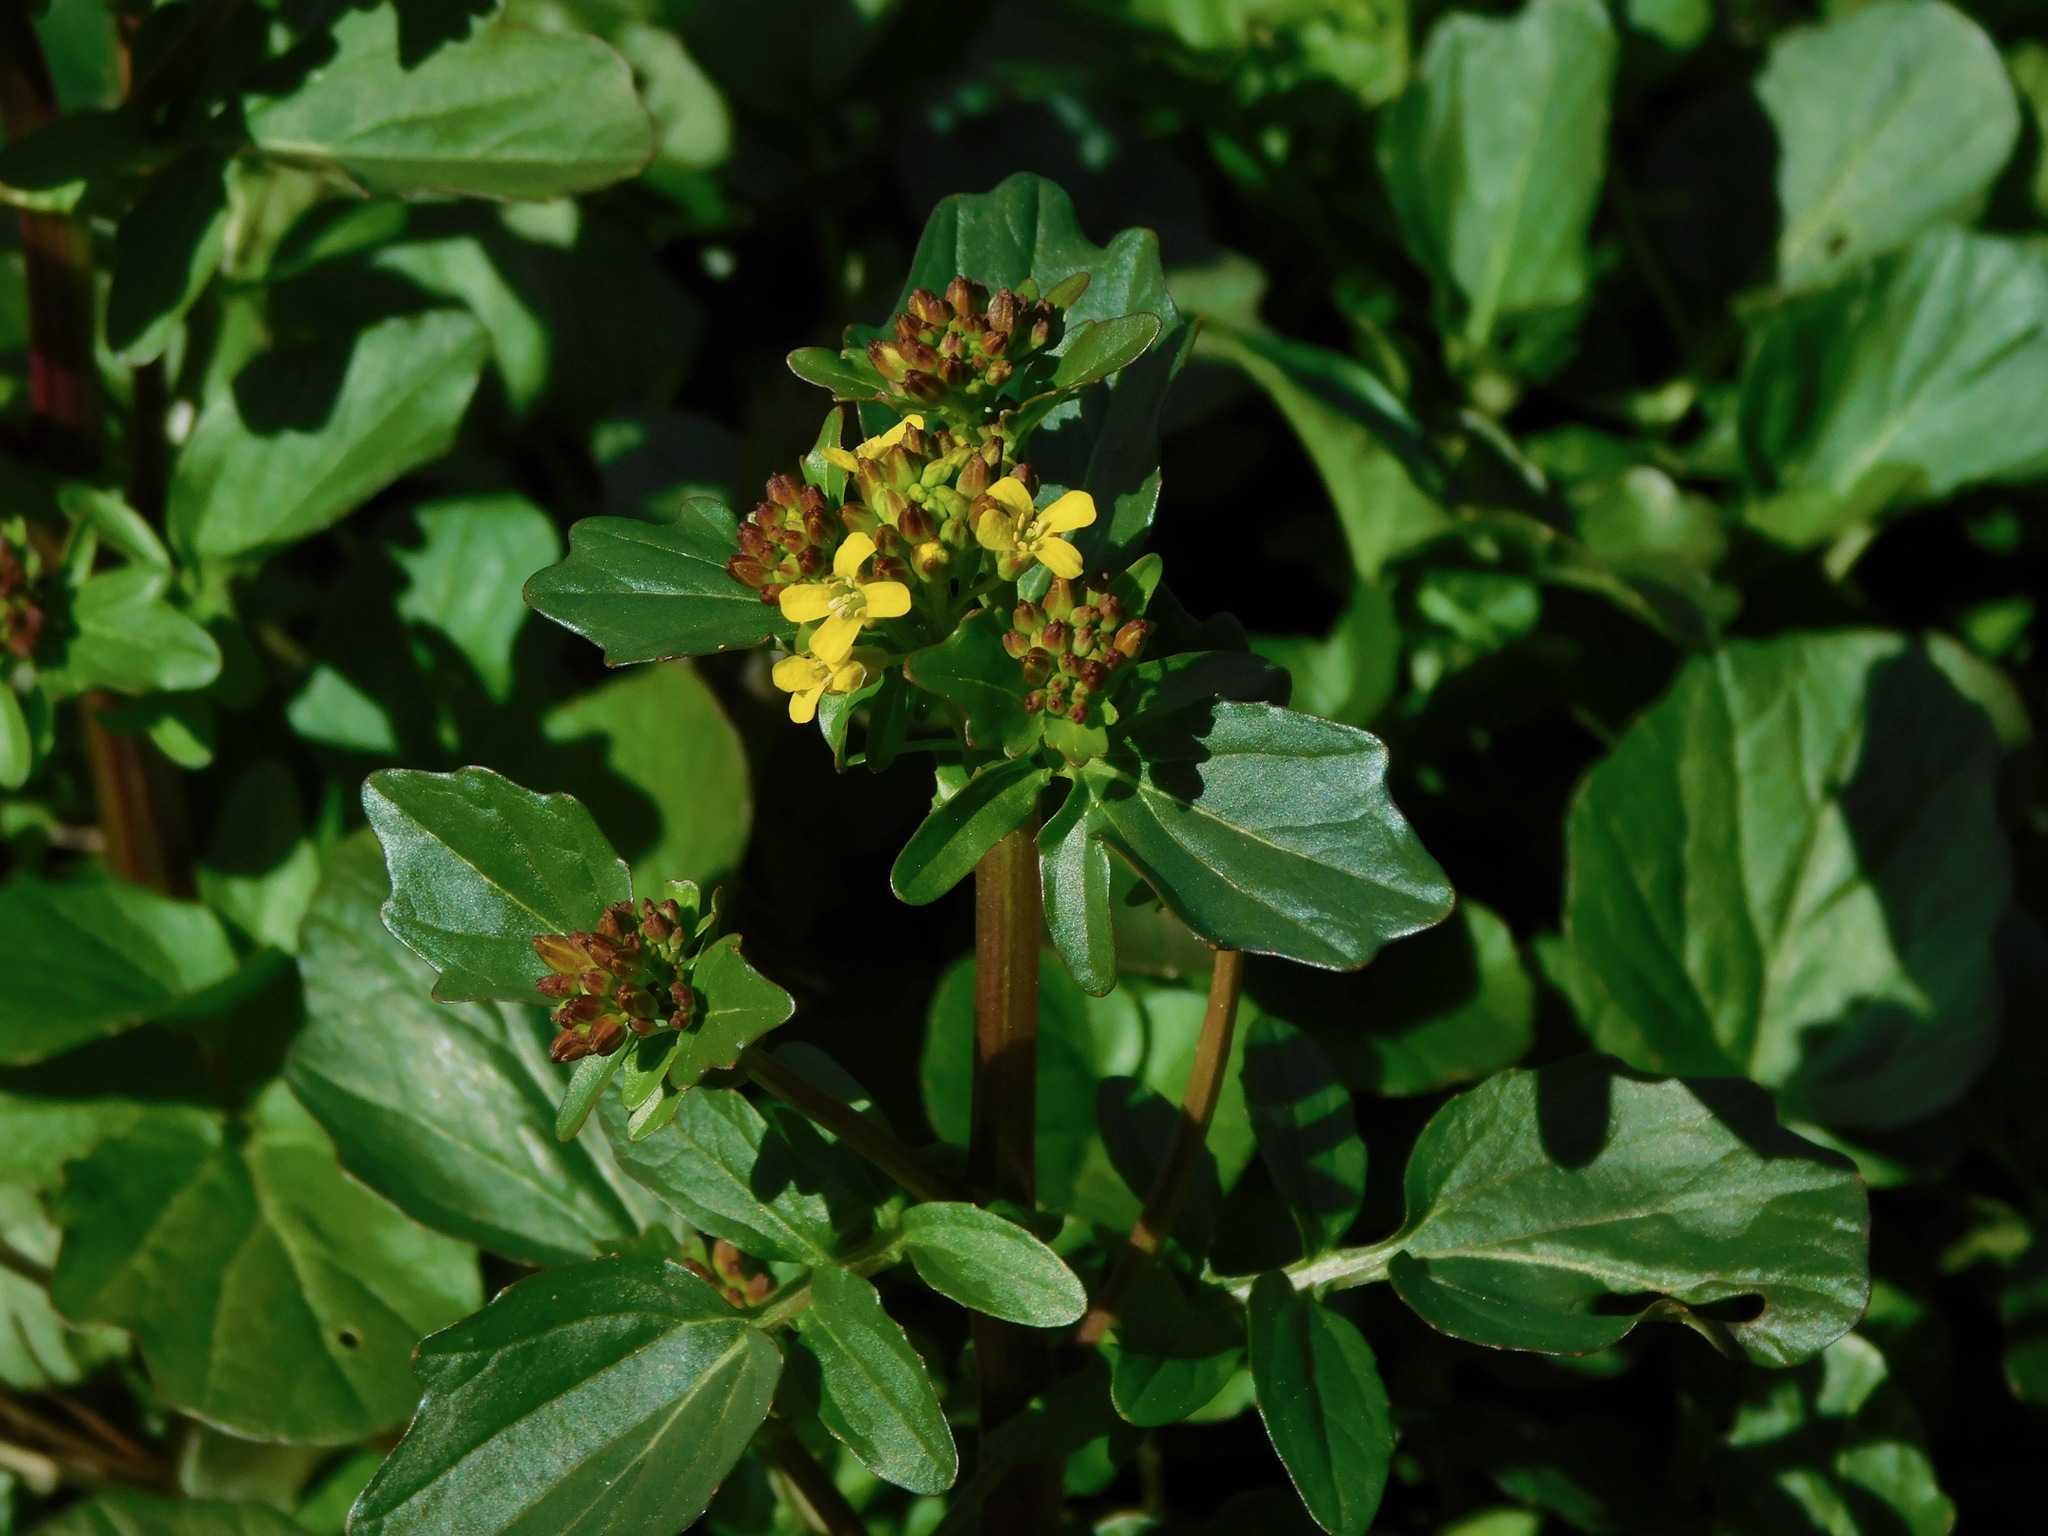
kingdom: Plantae
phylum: Tracheophyta
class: Magnoliopsida
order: Brassicales
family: Brassicaceae
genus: Barbarea
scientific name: Barbarea vulgaris
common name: Cressy-greens
